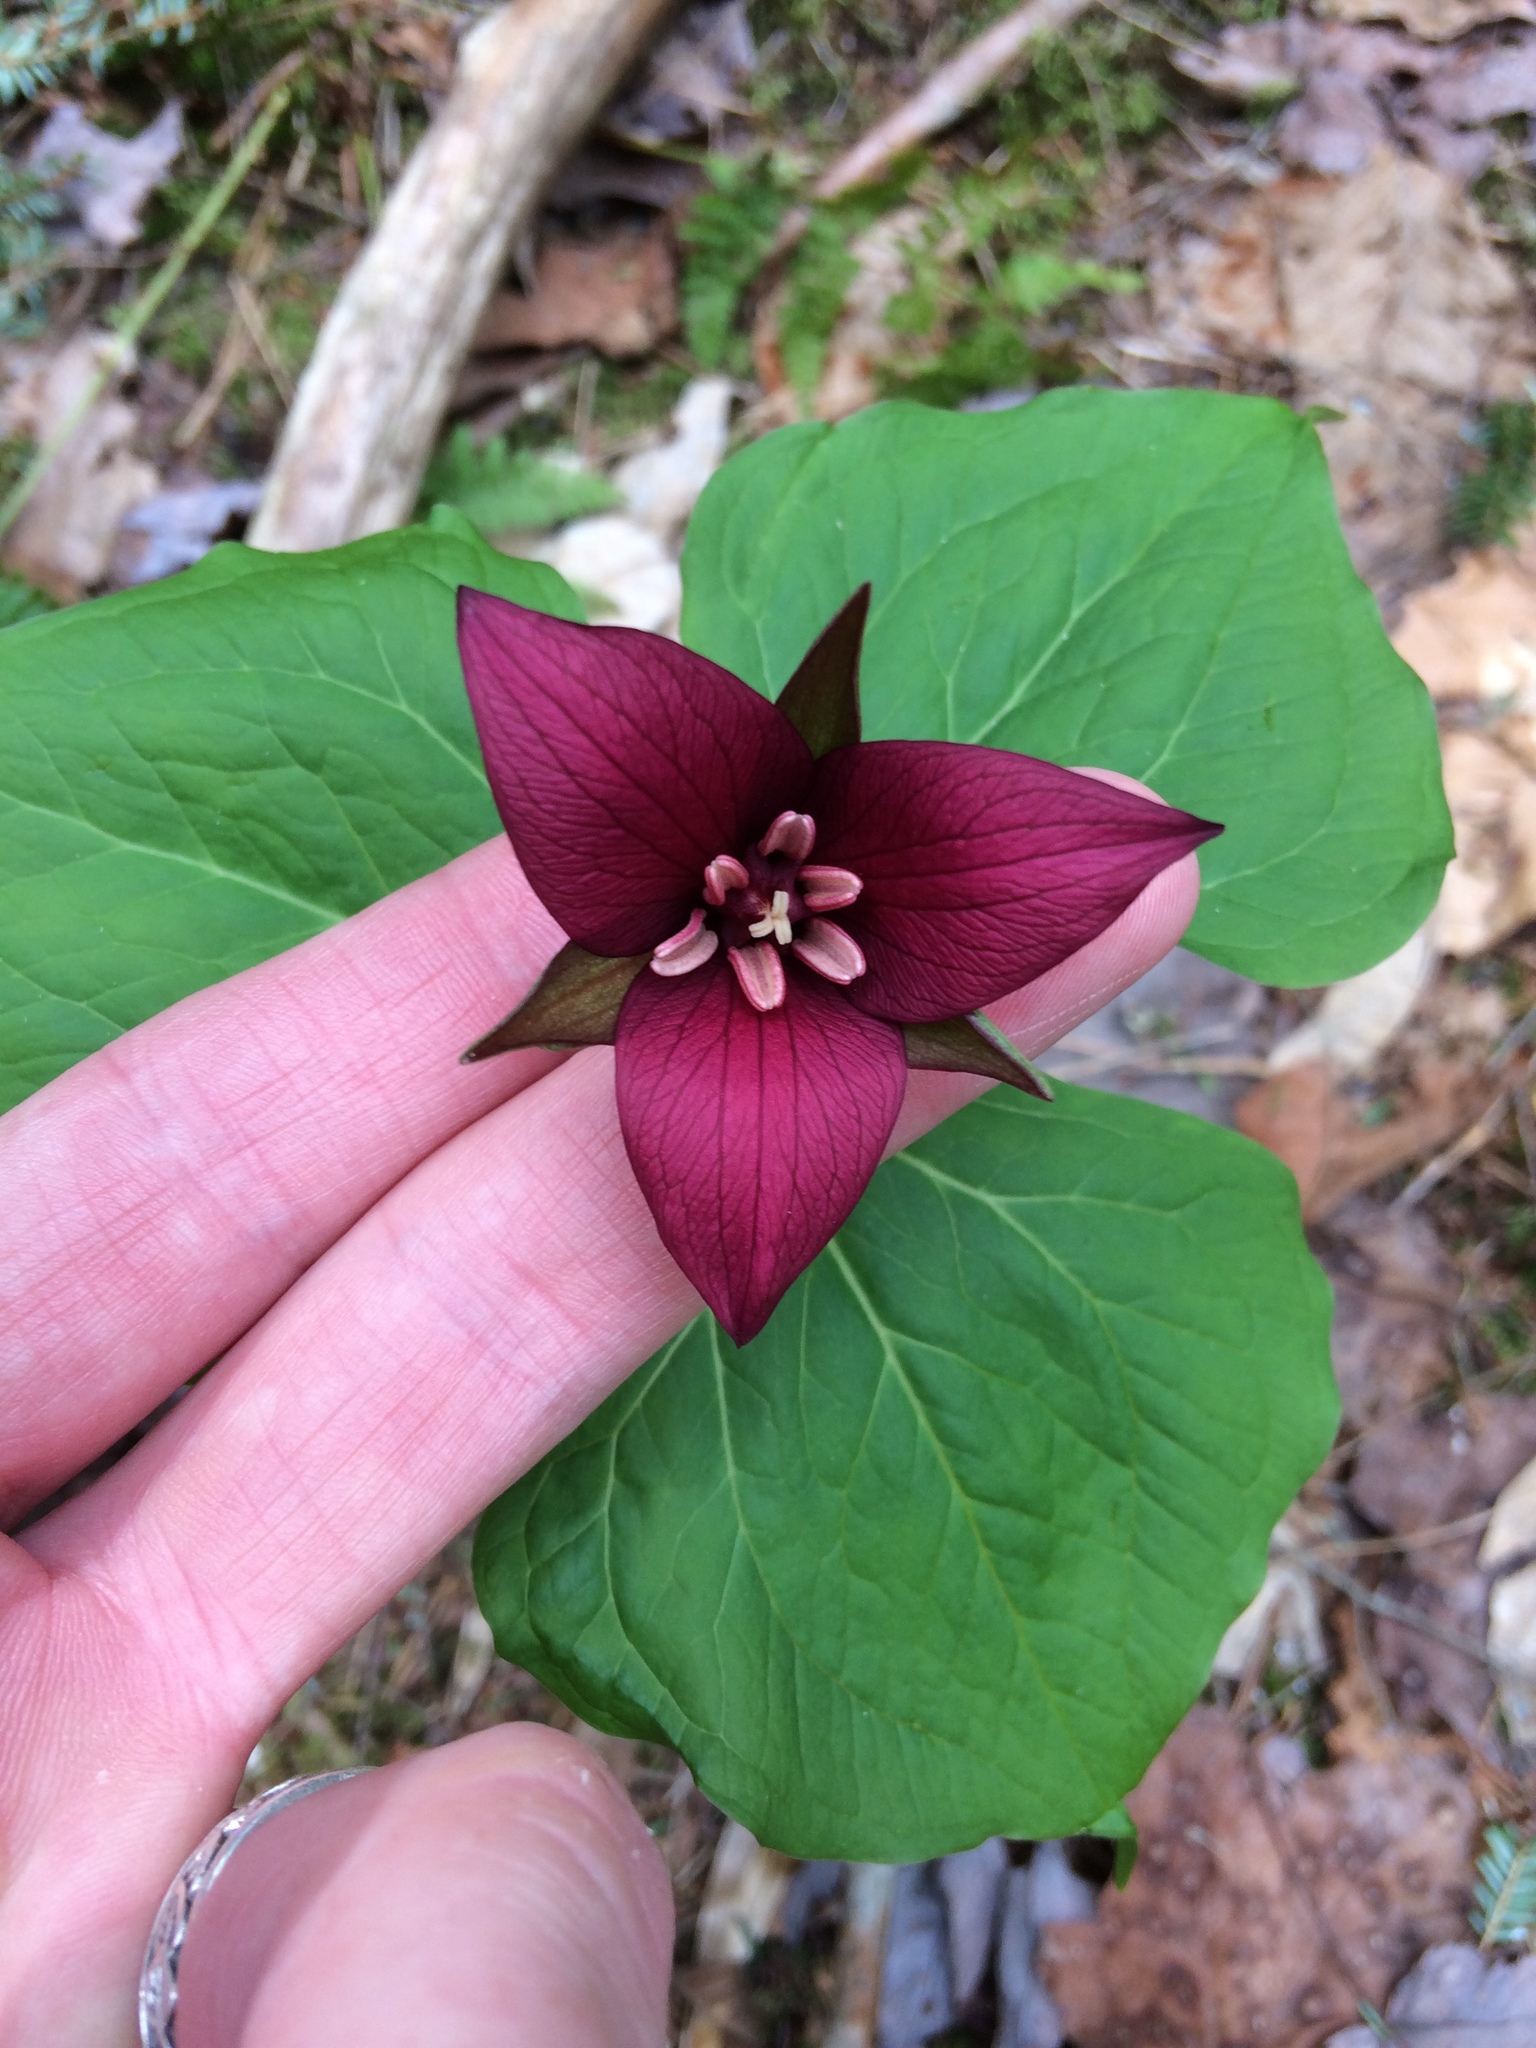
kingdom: Plantae
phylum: Tracheophyta
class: Liliopsida
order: Liliales
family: Melanthiaceae
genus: Trillium
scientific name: Trillium erectum
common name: Purple trillium
